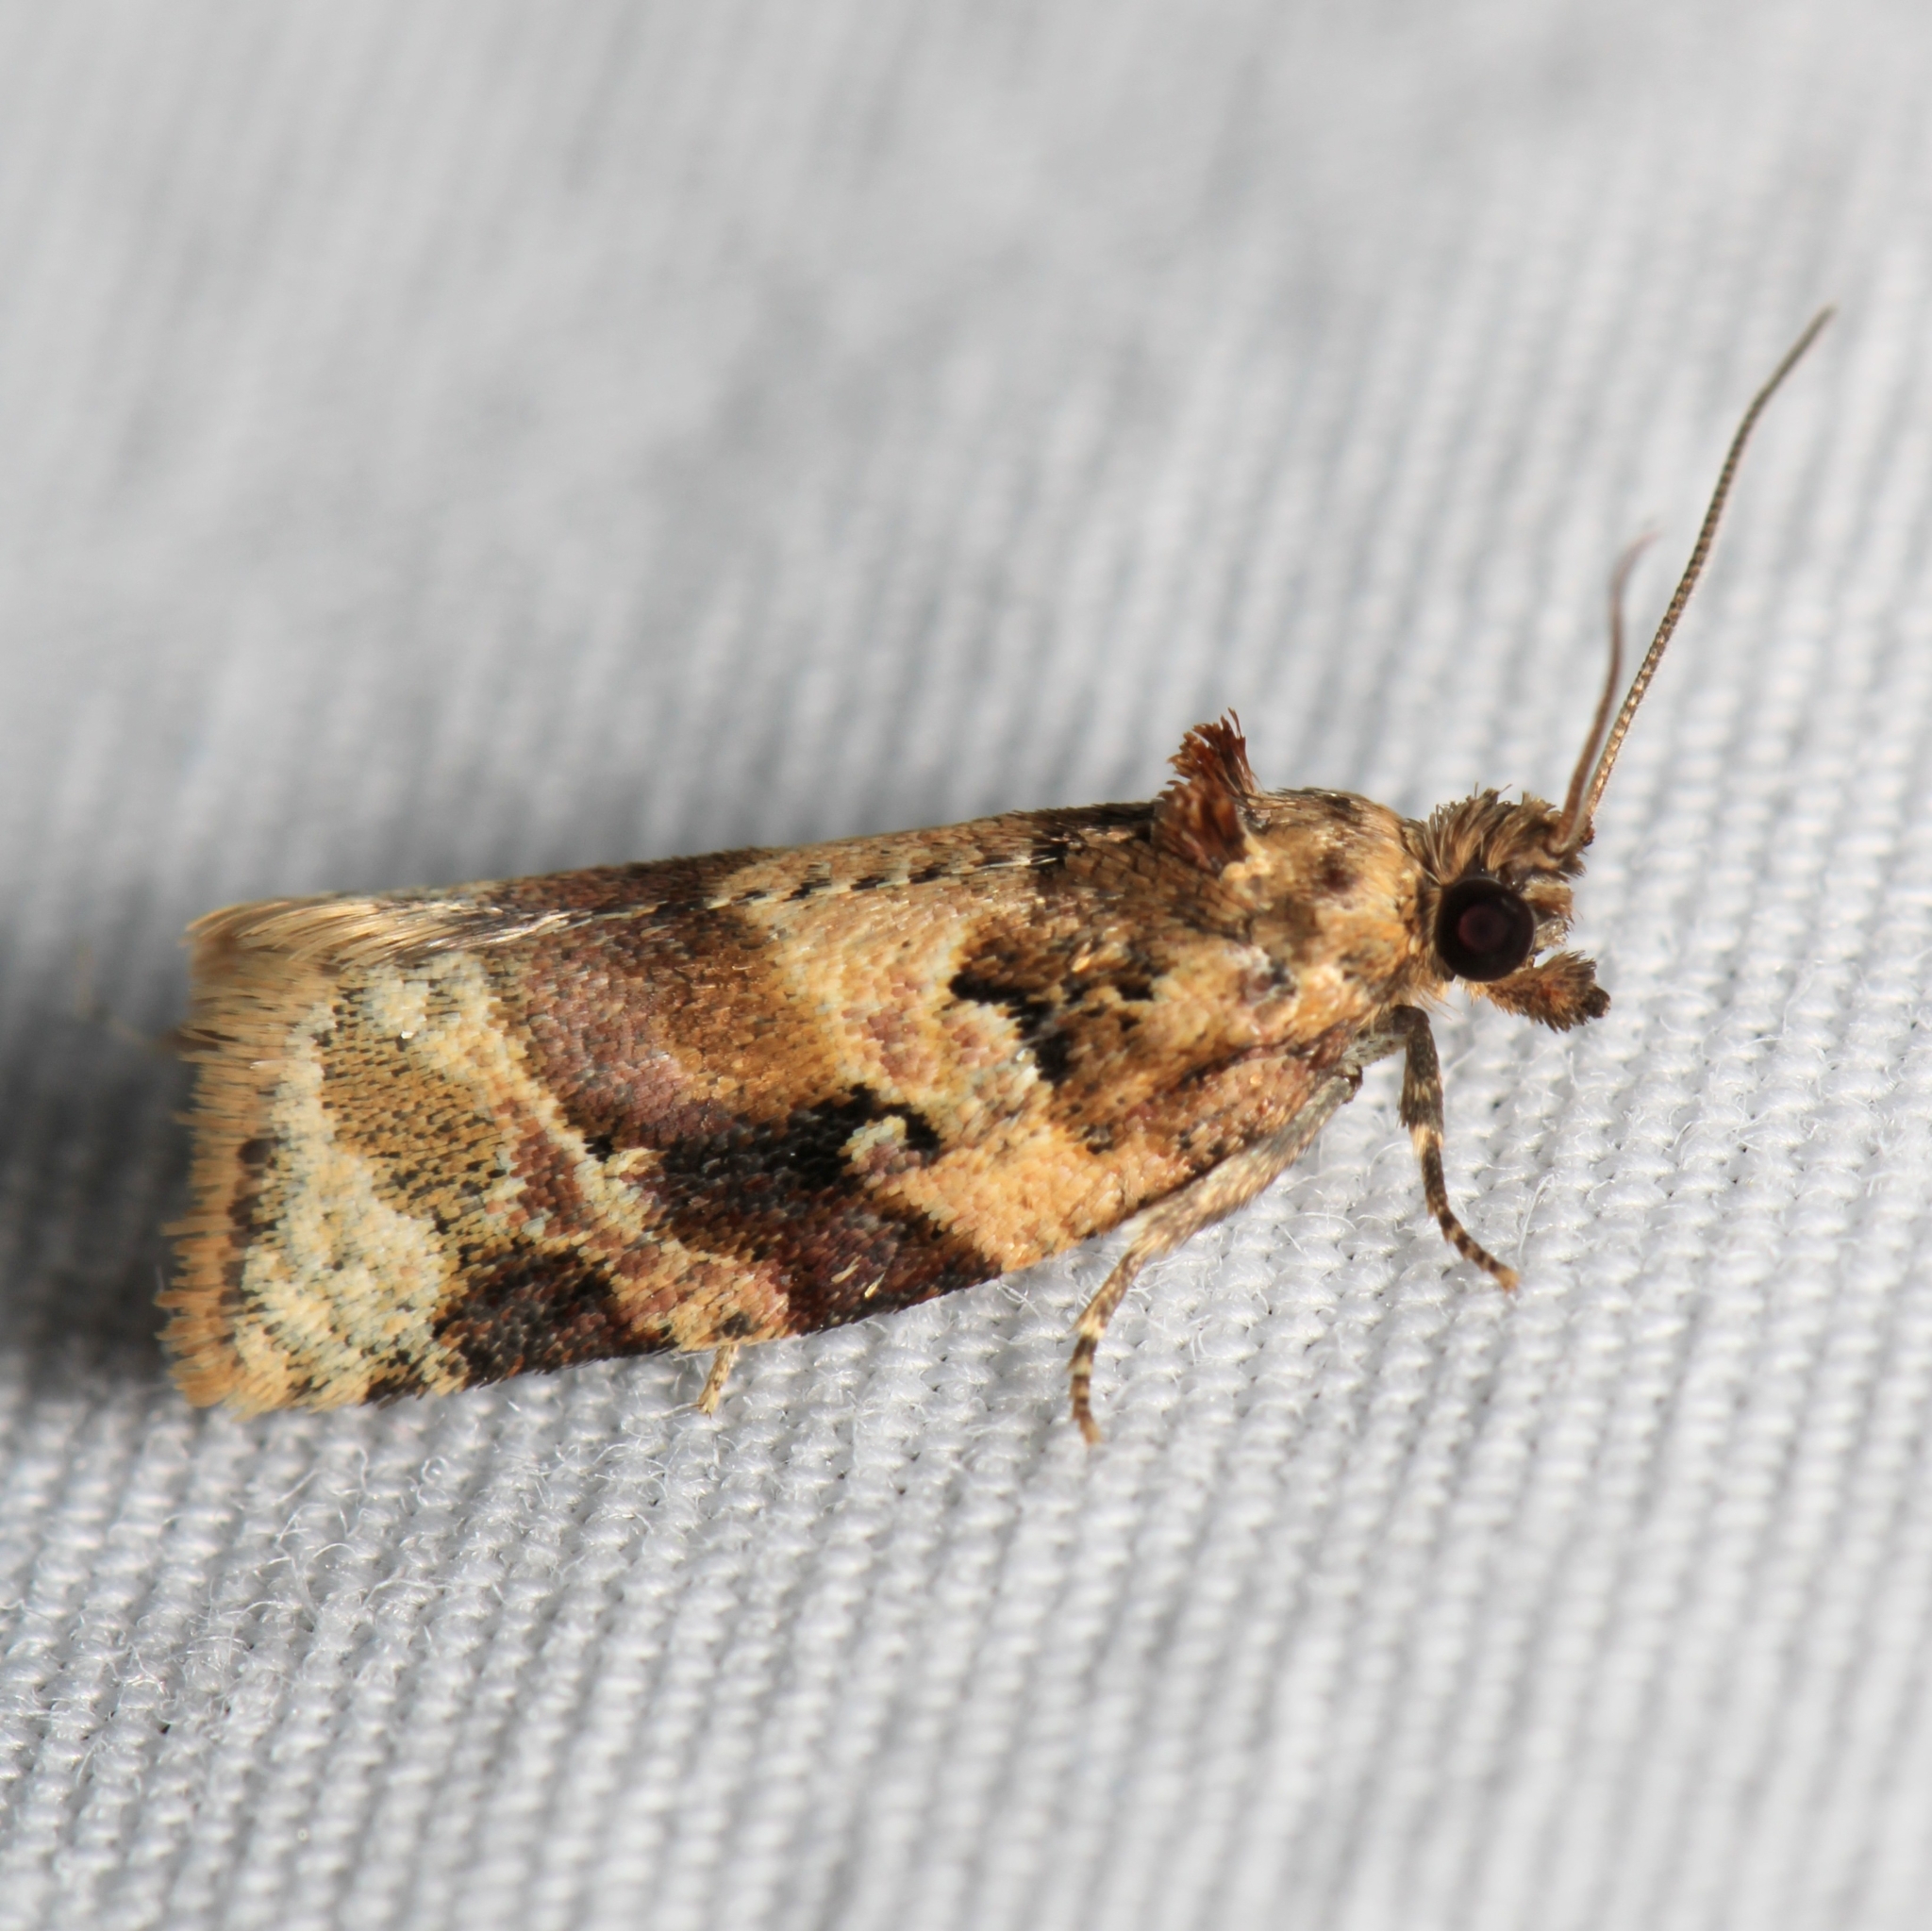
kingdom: Animalia
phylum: Arthropoda
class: Insecta
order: Lepidoptera
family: Tortricidae
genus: Argyrotaenia
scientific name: Argyrotaenia velutinana
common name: Red-banded leafroller moth
